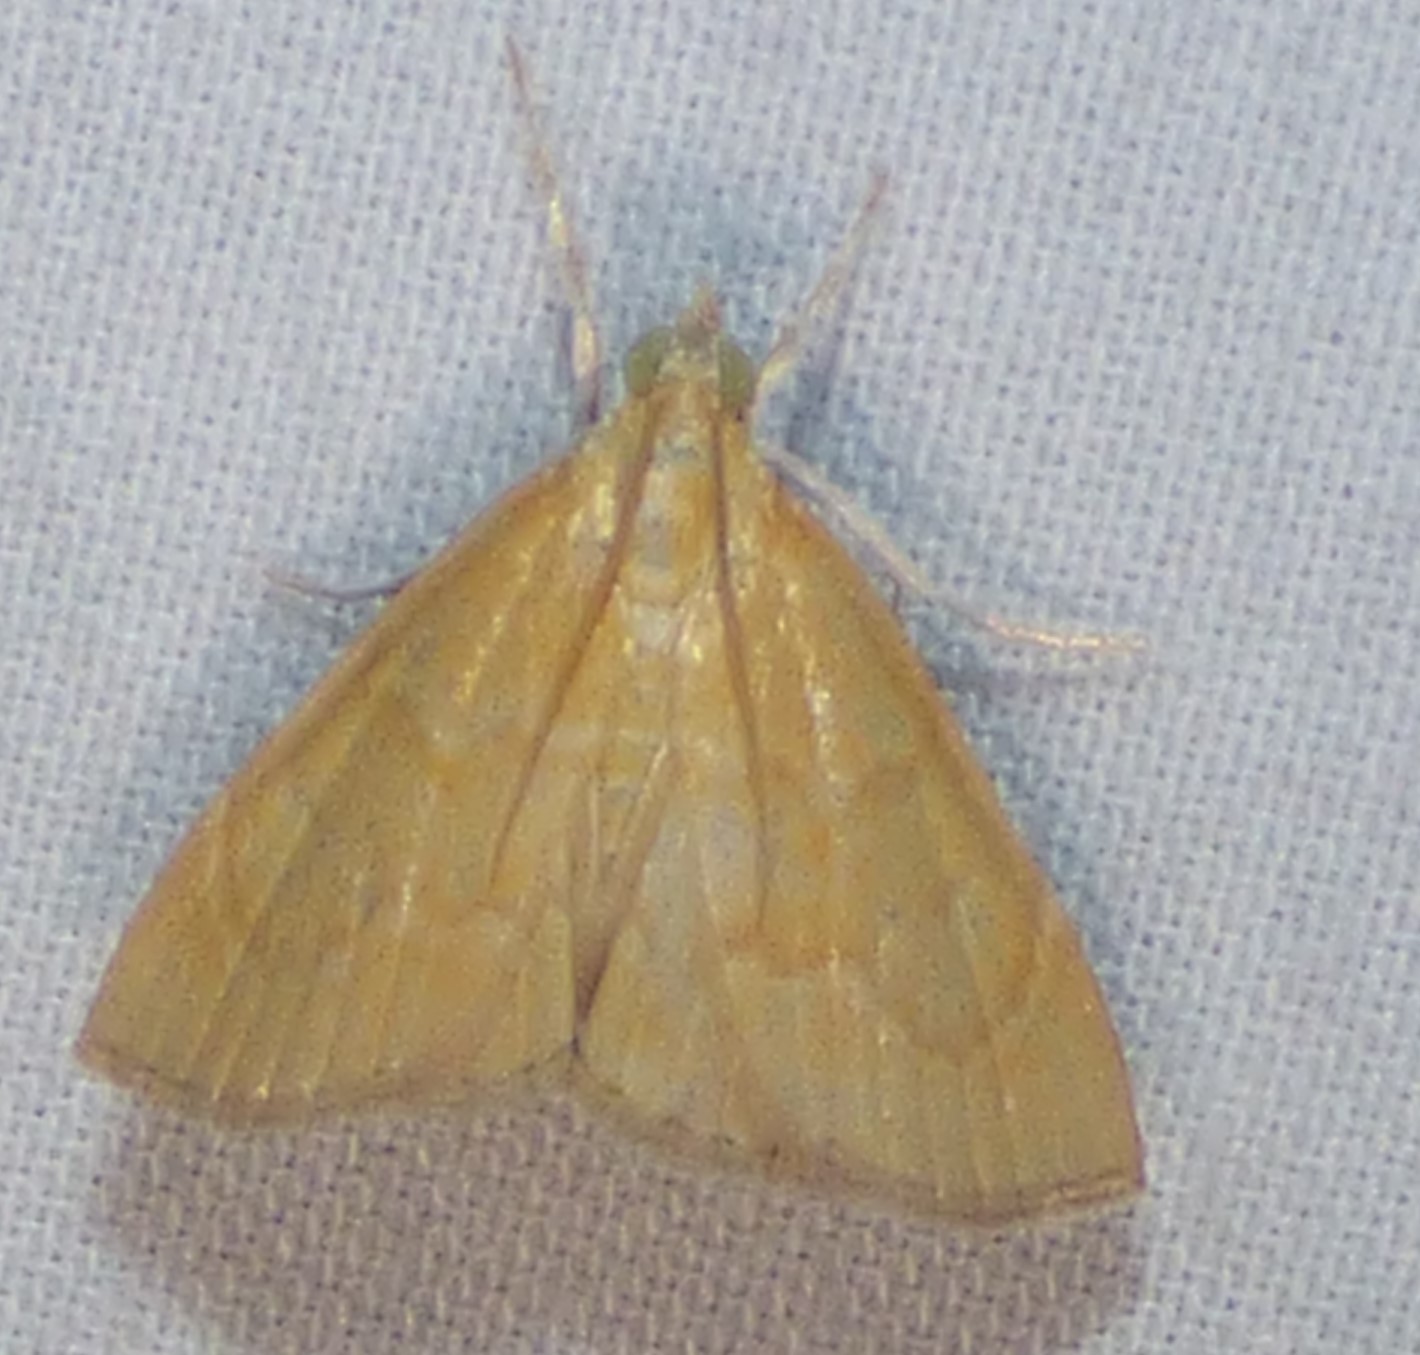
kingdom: Animalia
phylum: Arthropoda
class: Insecta
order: Lepidoptera
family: Crambidae
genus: Glaphyria
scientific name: Glaphyria invisalis
